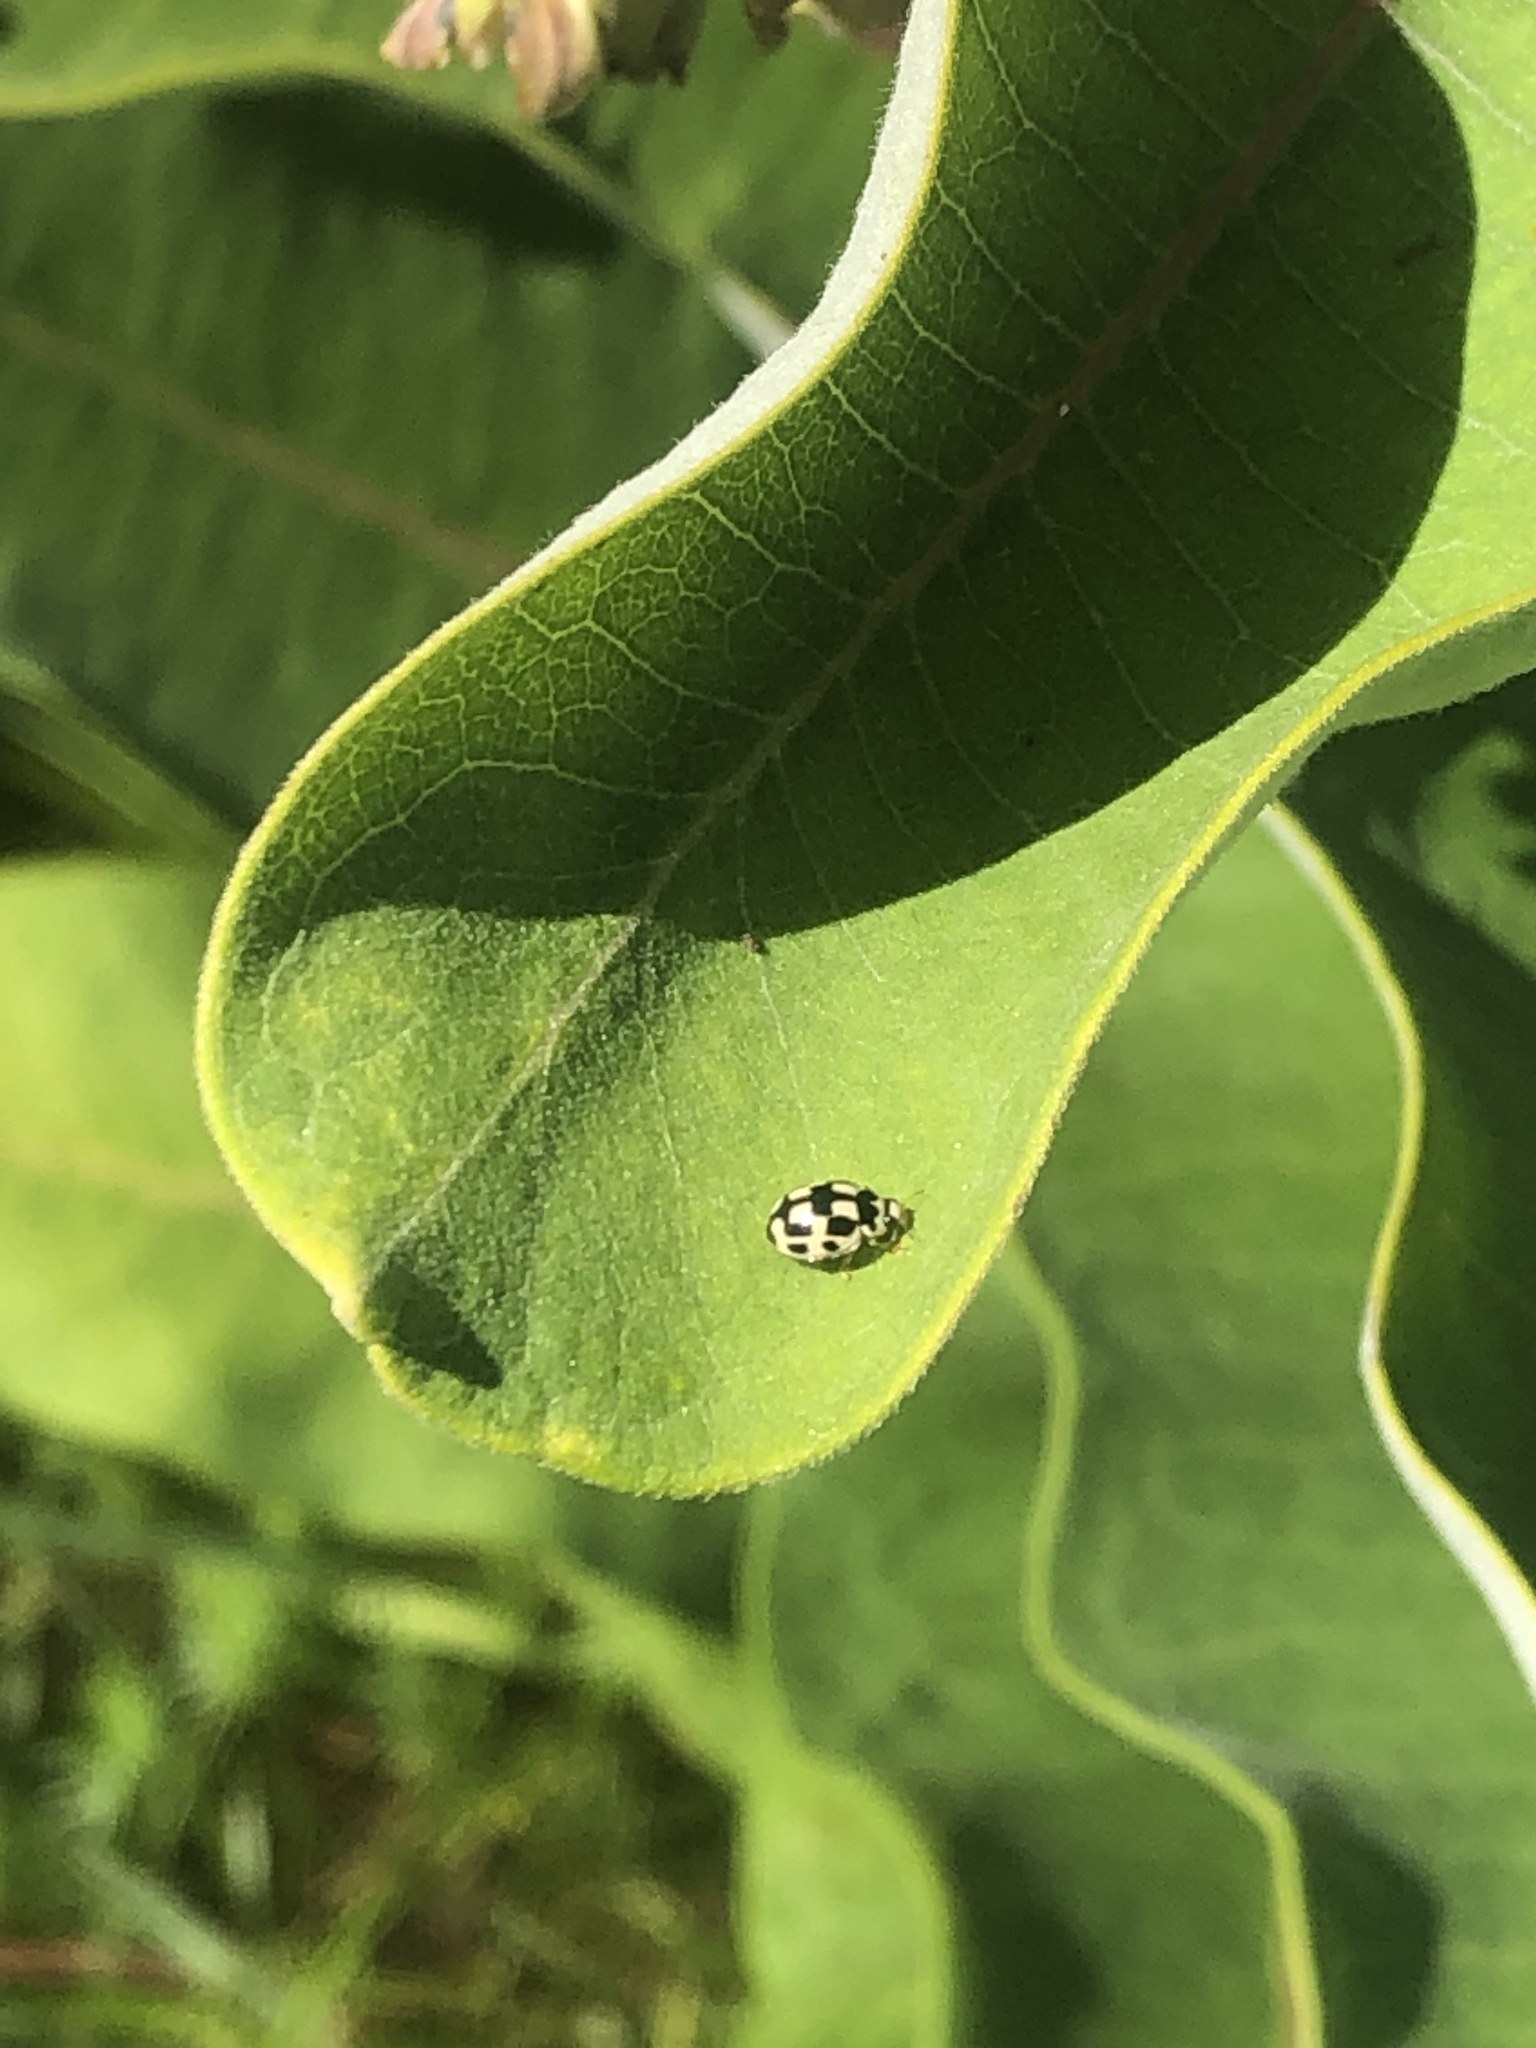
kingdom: Animalia
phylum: Arthropoda
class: Insecta
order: Coleoptera
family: Coccinellidae
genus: Propylaea
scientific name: Propylaea quatuordecimpunctata
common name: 14-spotted ladybird beetle
